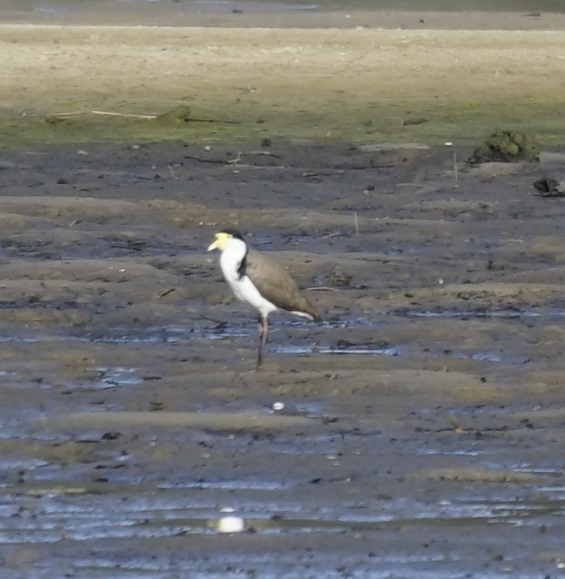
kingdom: Animalia
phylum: Chordata
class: Aves
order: Charadriiformes
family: Charadriidae
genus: Vanellus
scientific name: Vanellus miles
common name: Masked lapwing
